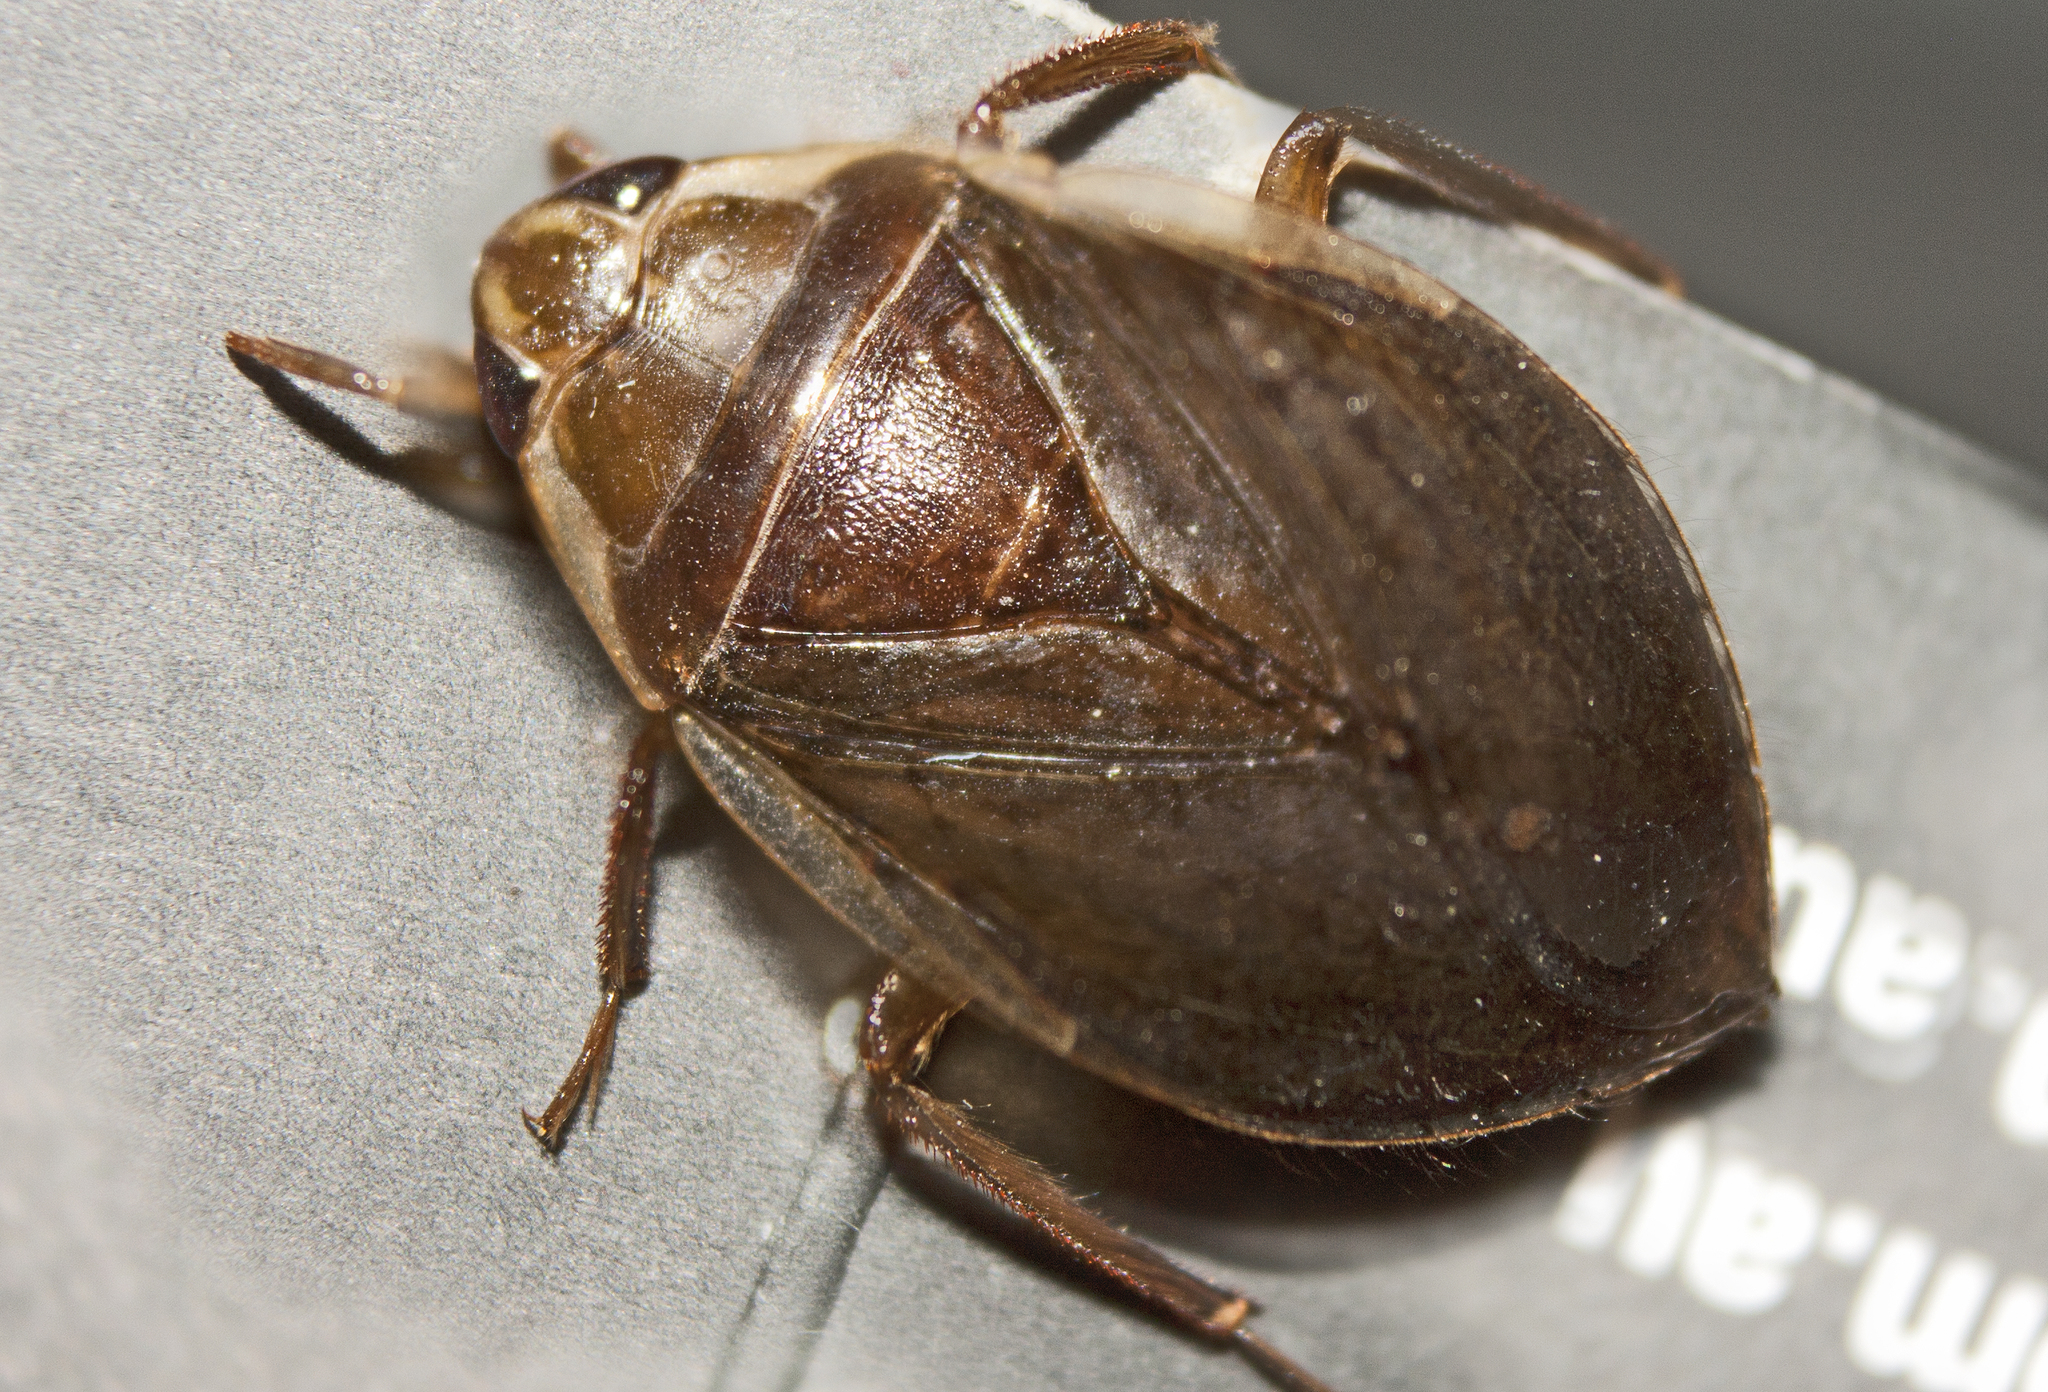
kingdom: Animalia
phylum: Arthropoda
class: Insecta
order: Hemiptera
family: Belostomatidae
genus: Diplonychus
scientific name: Diplonychus eques
